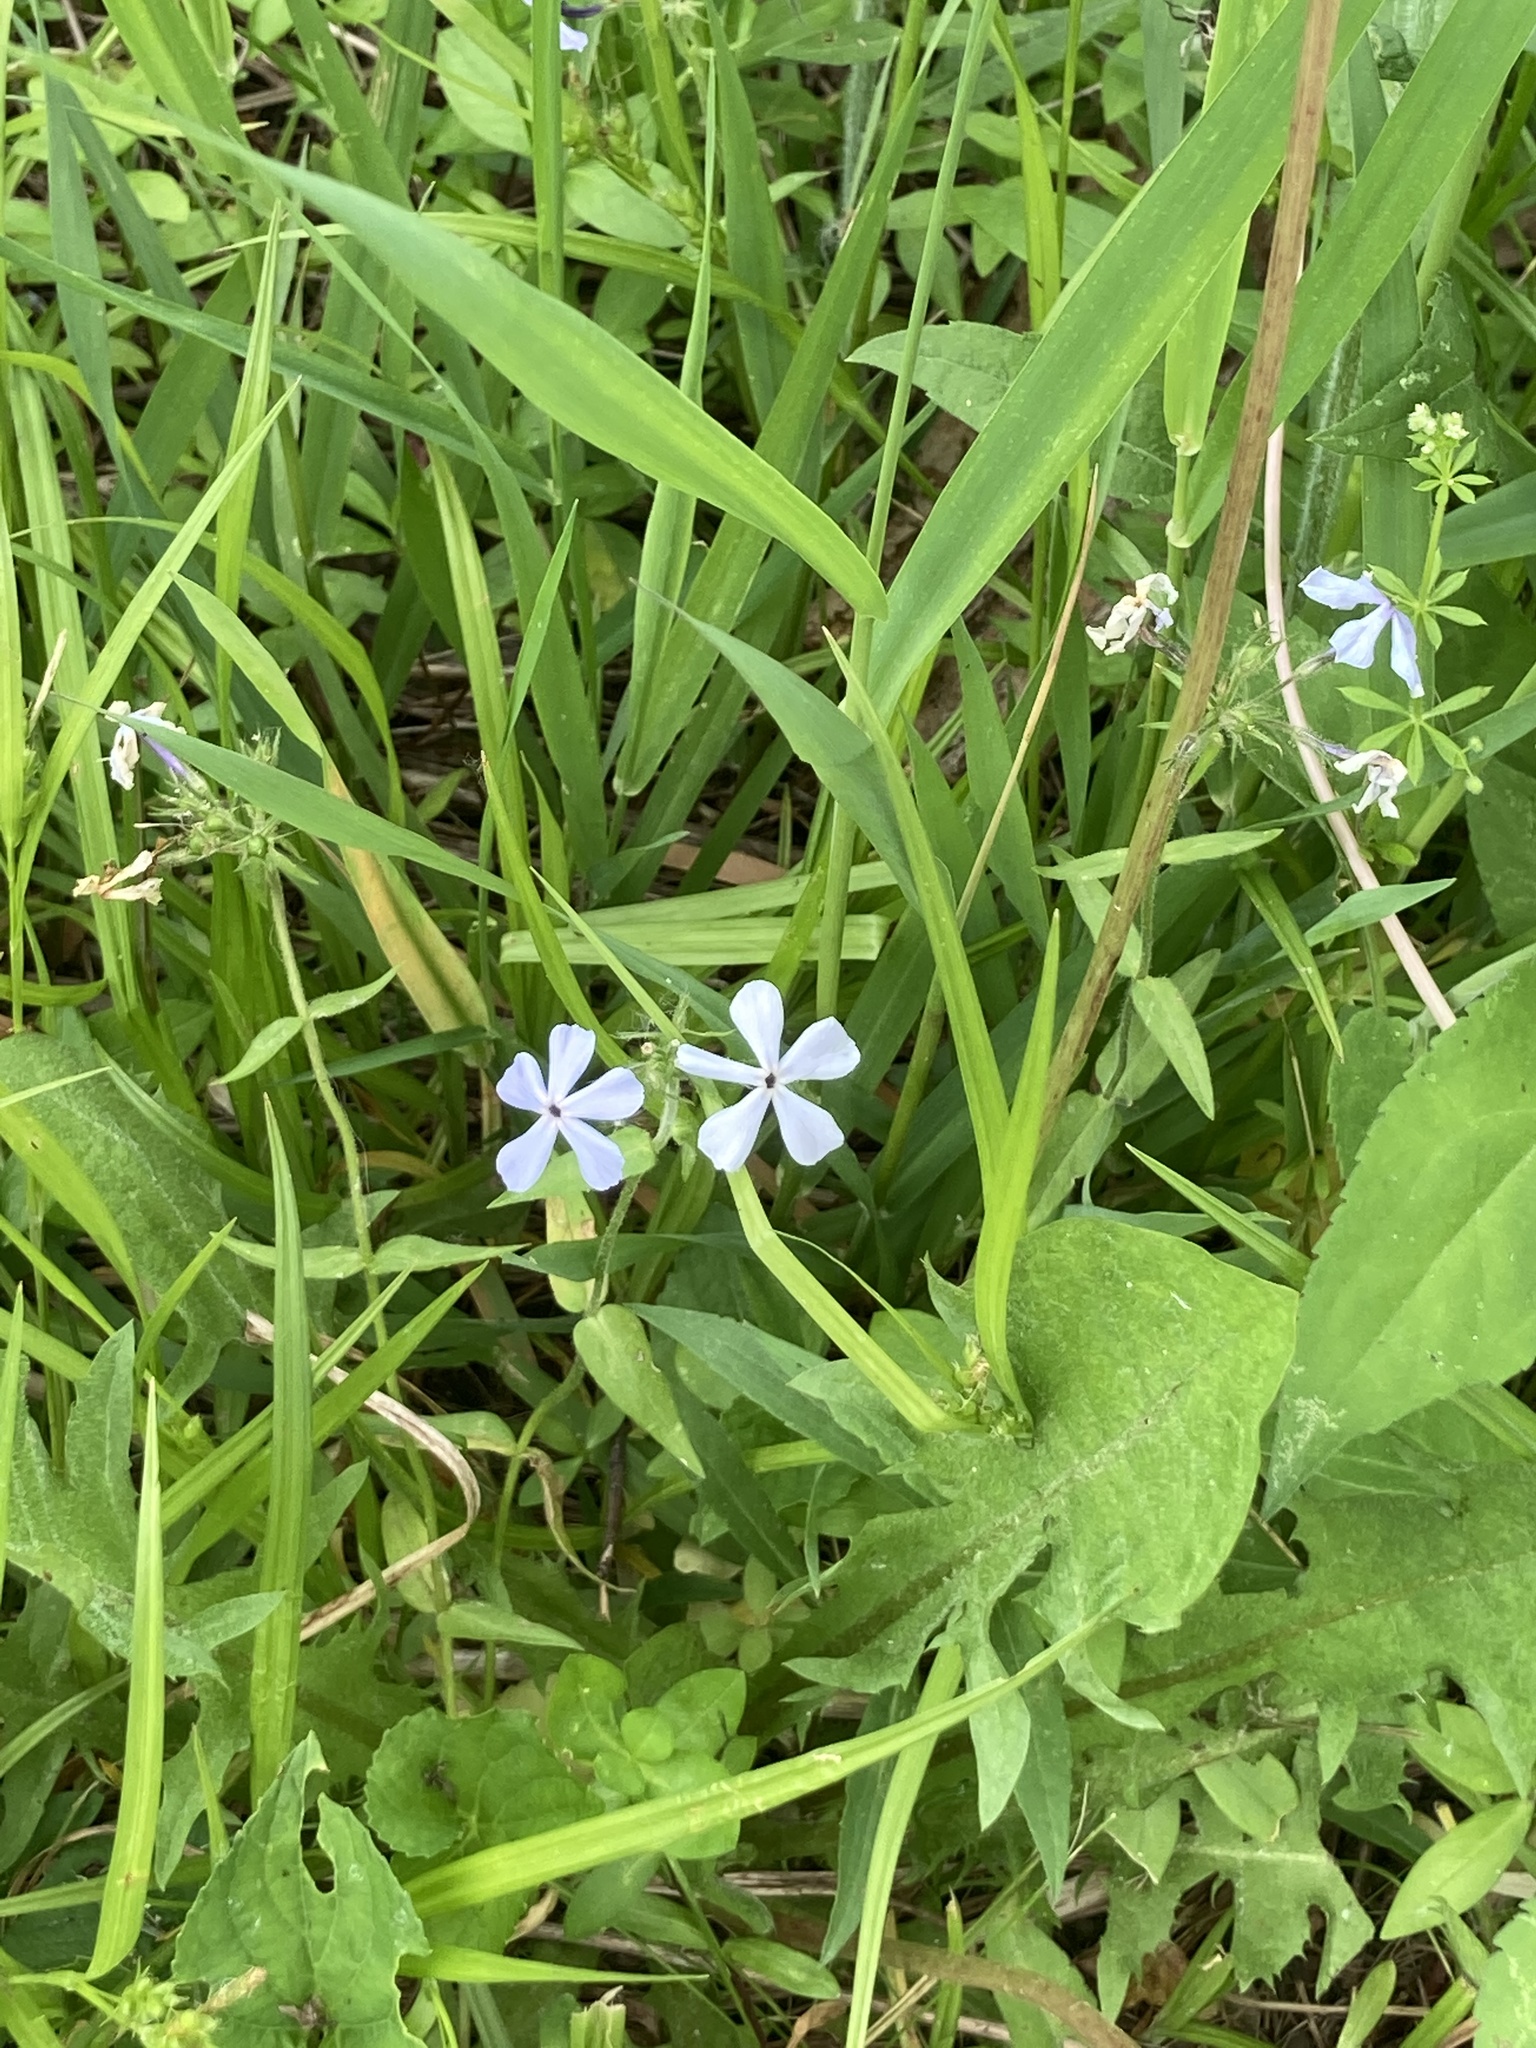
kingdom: Plantae
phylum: Tracheophyta
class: Magnoliopsida
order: Ericales
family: Polemoniaceae
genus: Phlox
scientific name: Phlox divaricata
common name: Blue phlox
